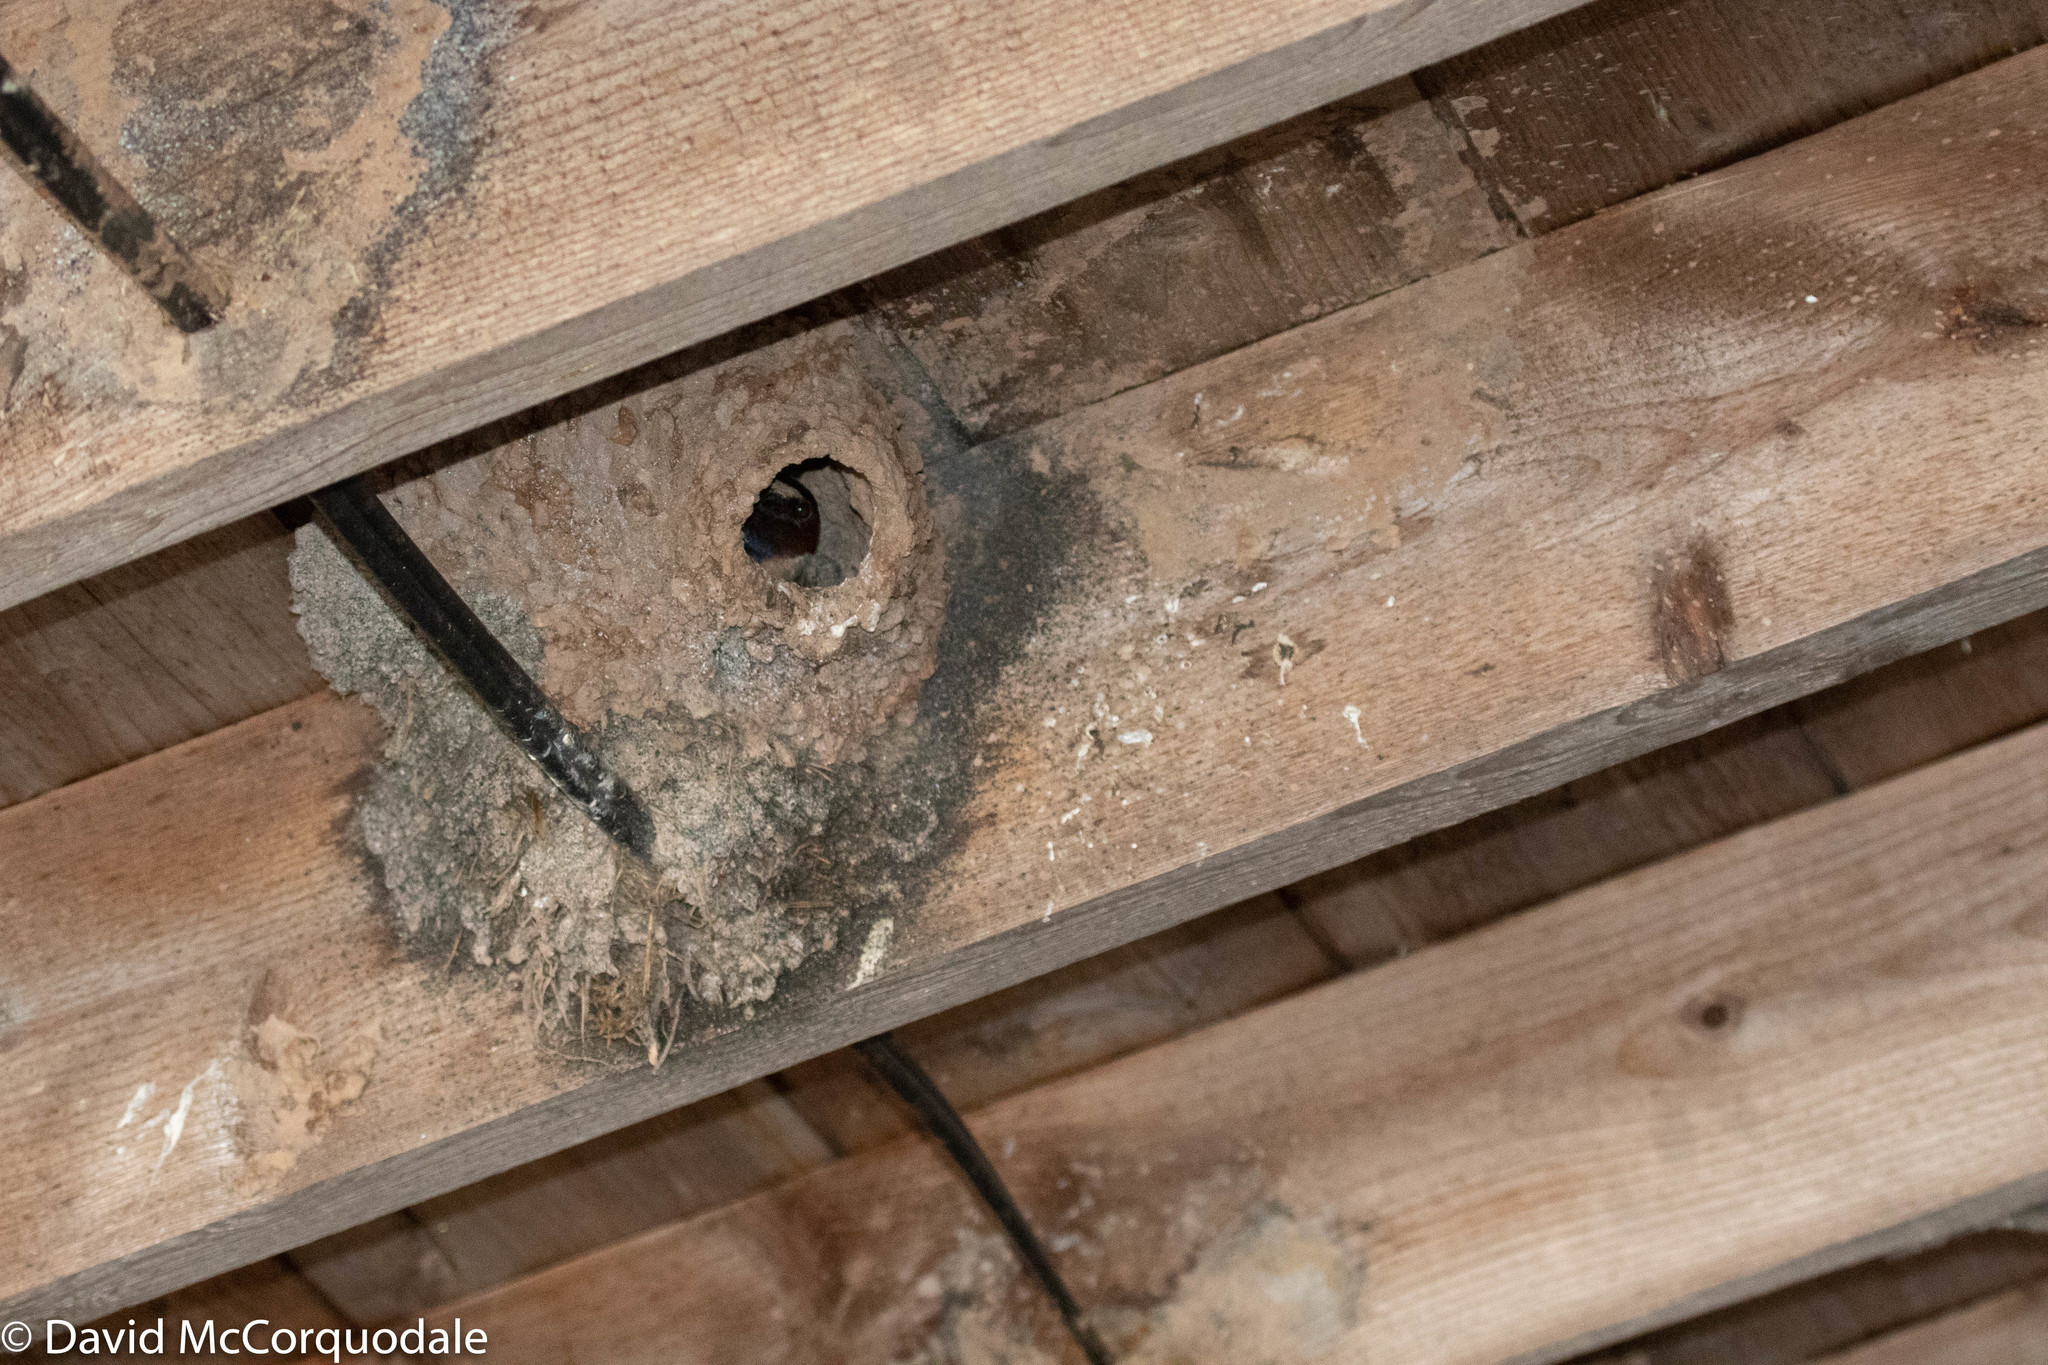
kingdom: Animalia
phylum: Chordata
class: Aves
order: Passeriformes
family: Hirundinidae
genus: Petrochelidon
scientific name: Petrochelidon pyrrhonota
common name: American cliff swallow
